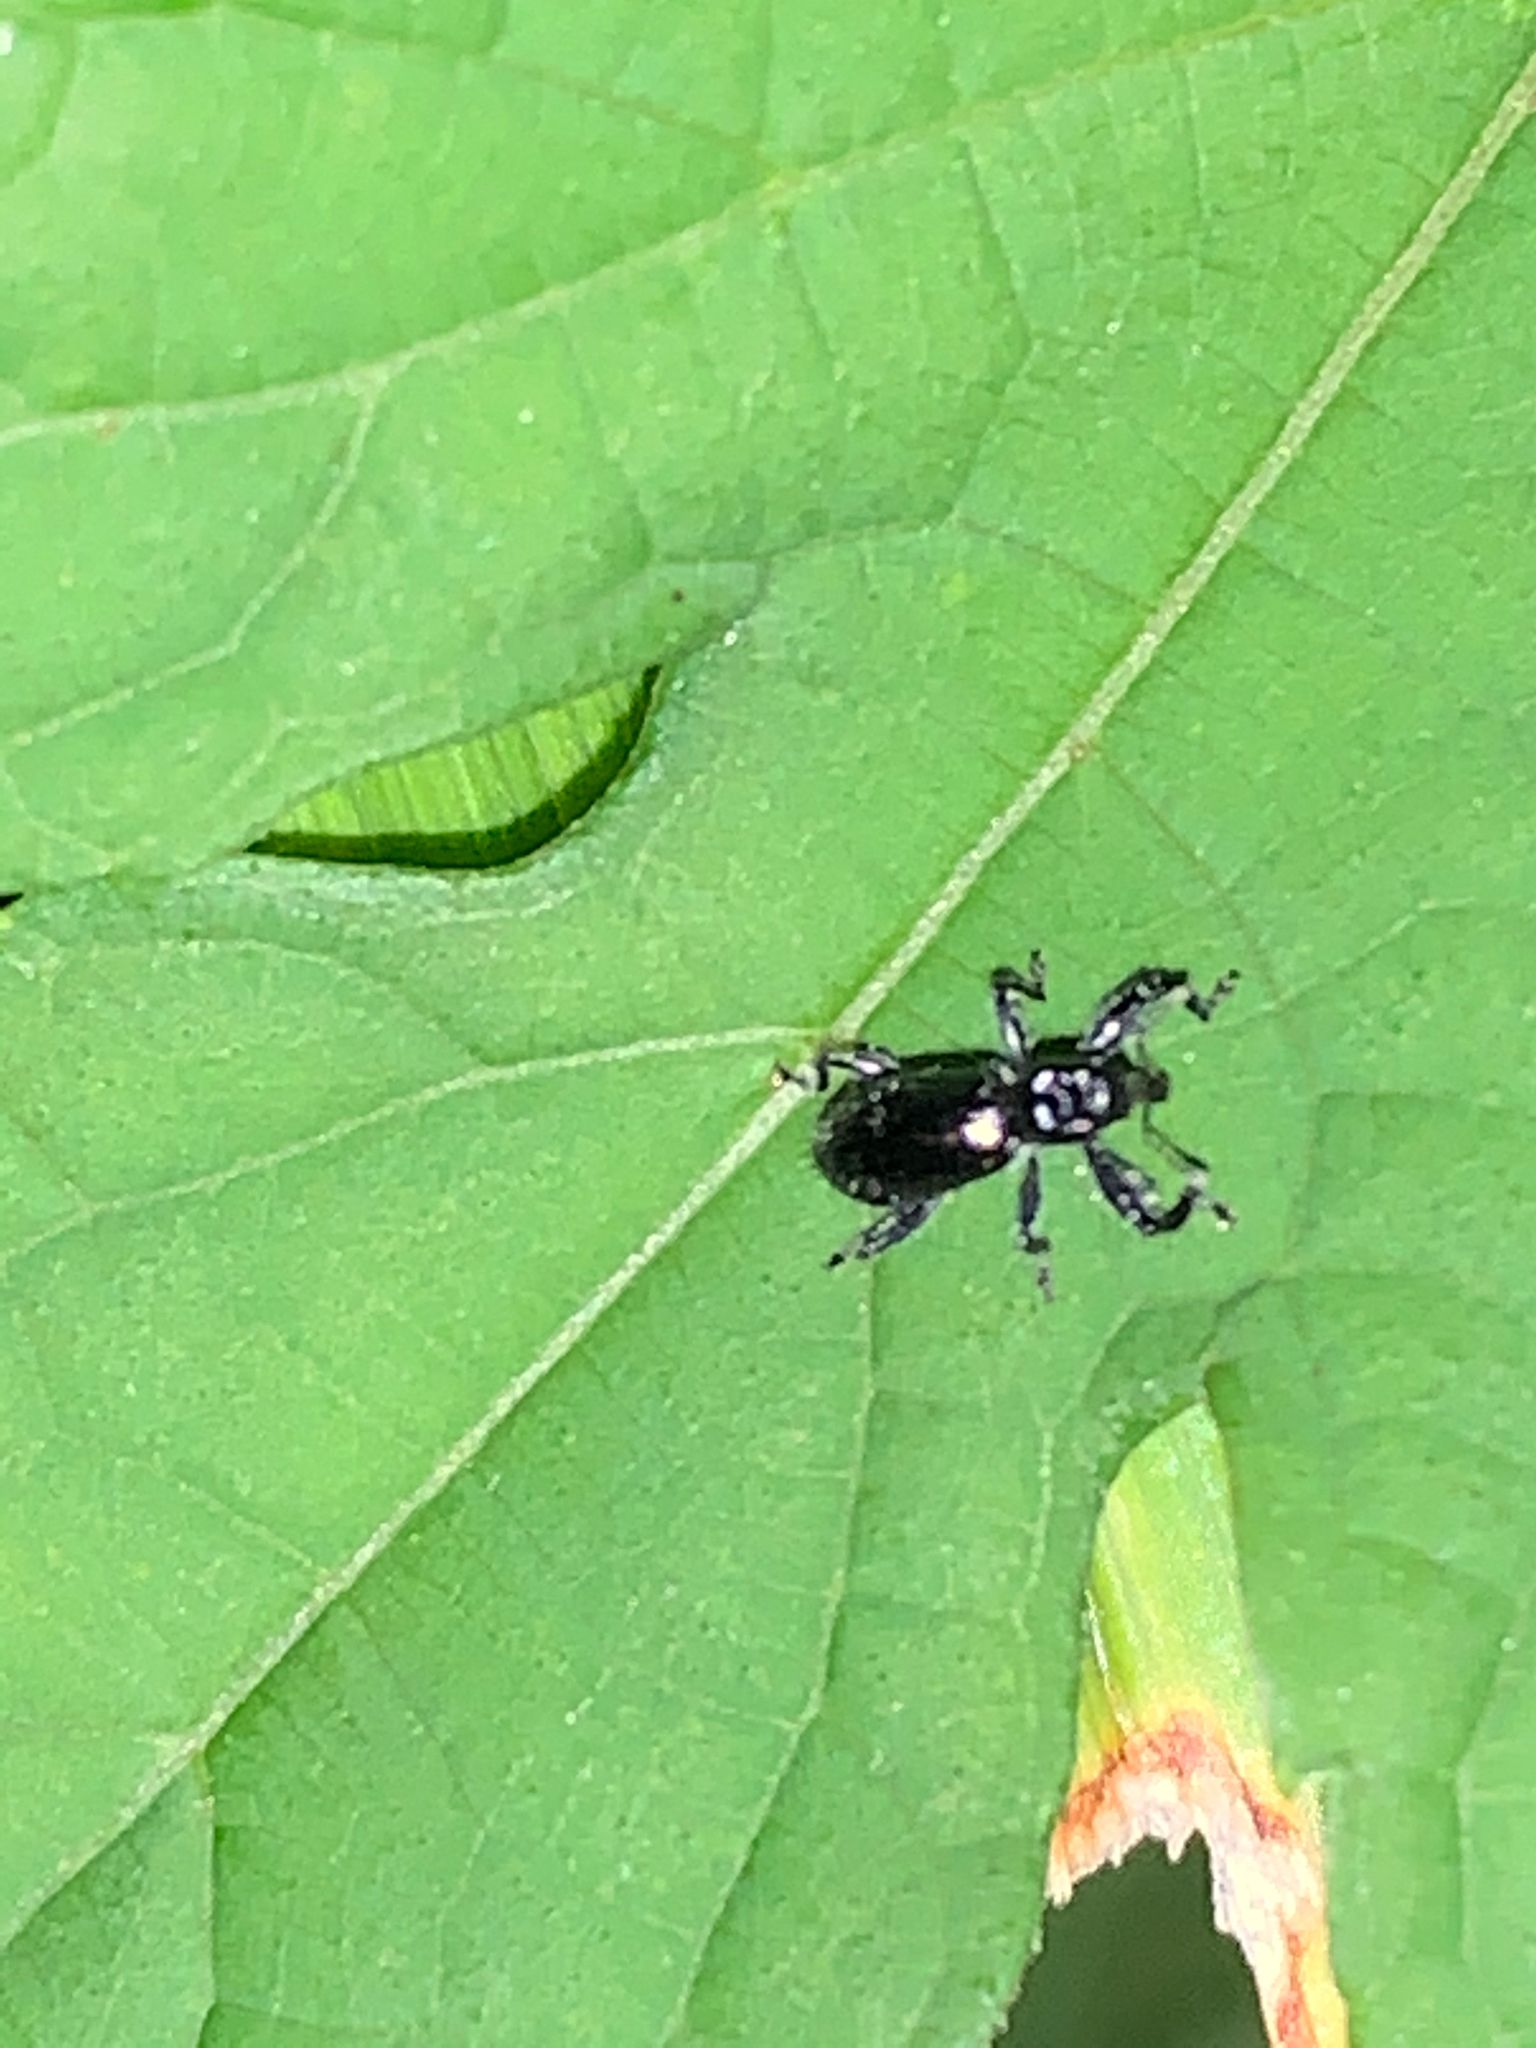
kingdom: Animalia
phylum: Arthropoda
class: Insecta
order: Coleoptera
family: Curculionidae
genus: Myrmex
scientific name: Myrmex
